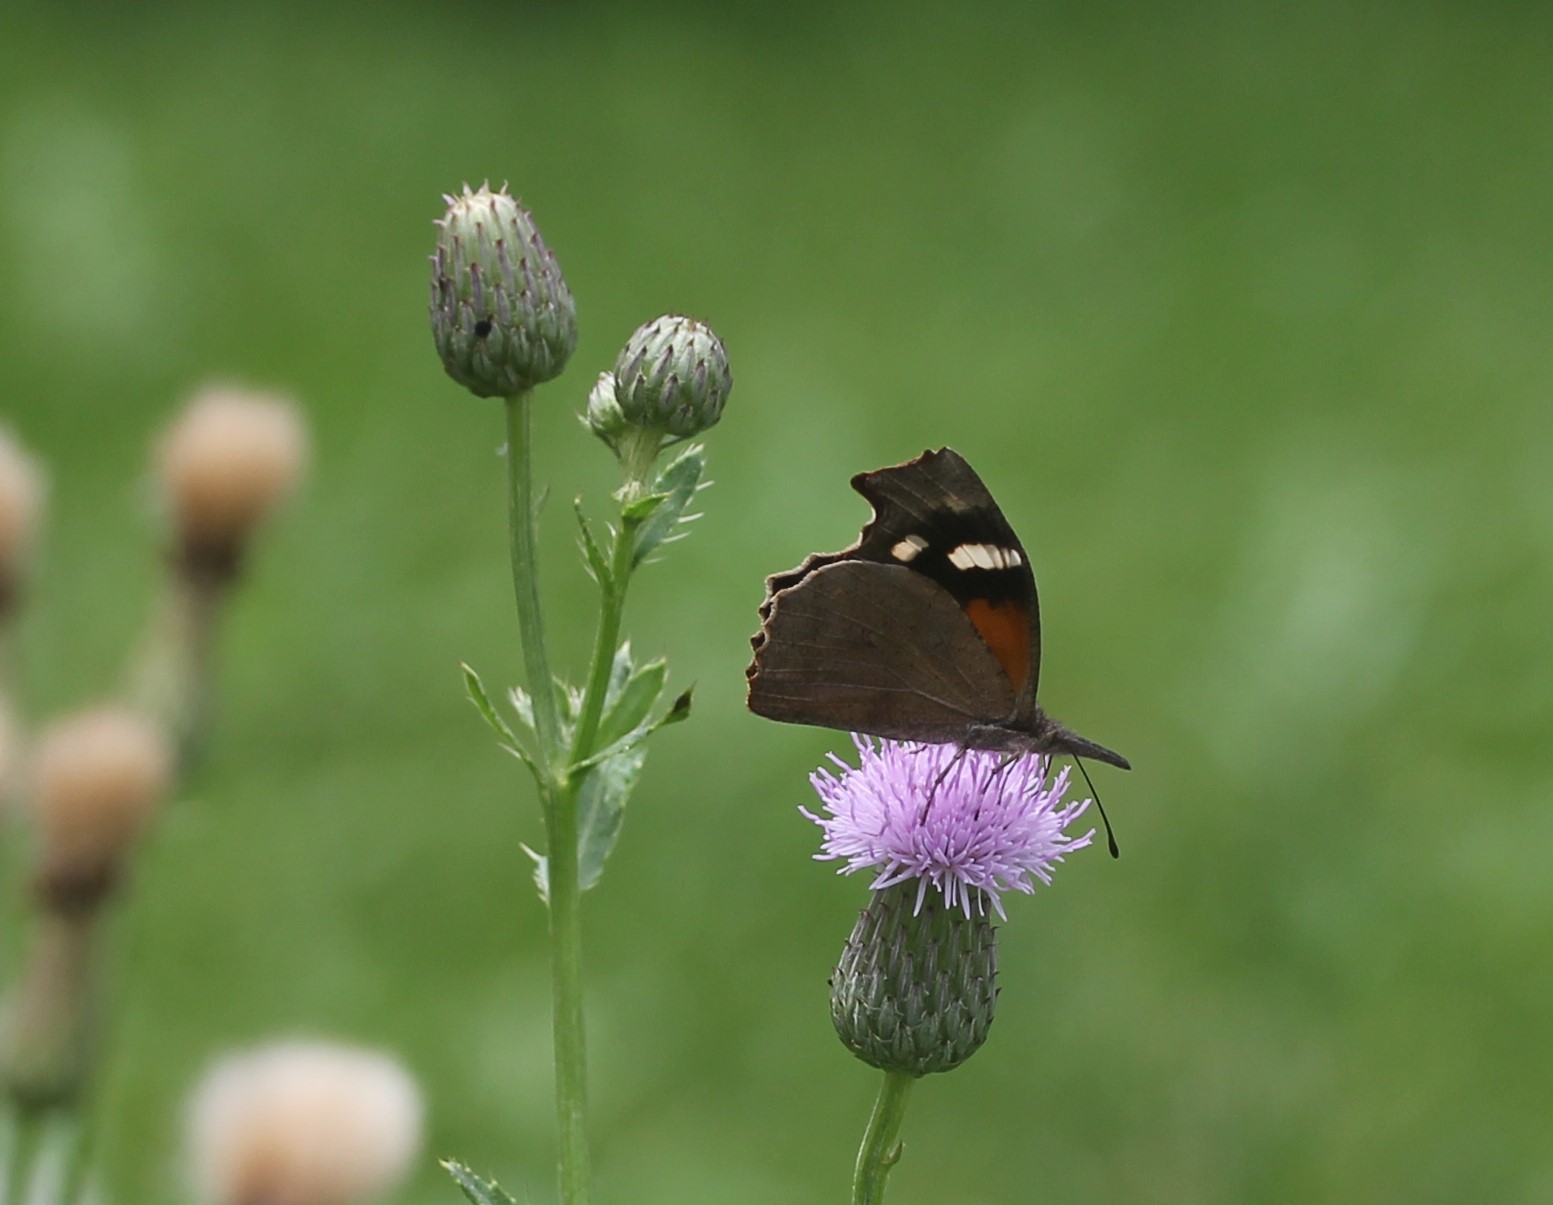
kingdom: Animalia
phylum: Arthropoda
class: Insecta
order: Lepidoptera
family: Nymphalidae
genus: Libytheana
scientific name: Libytheana carinenta
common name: American snout
